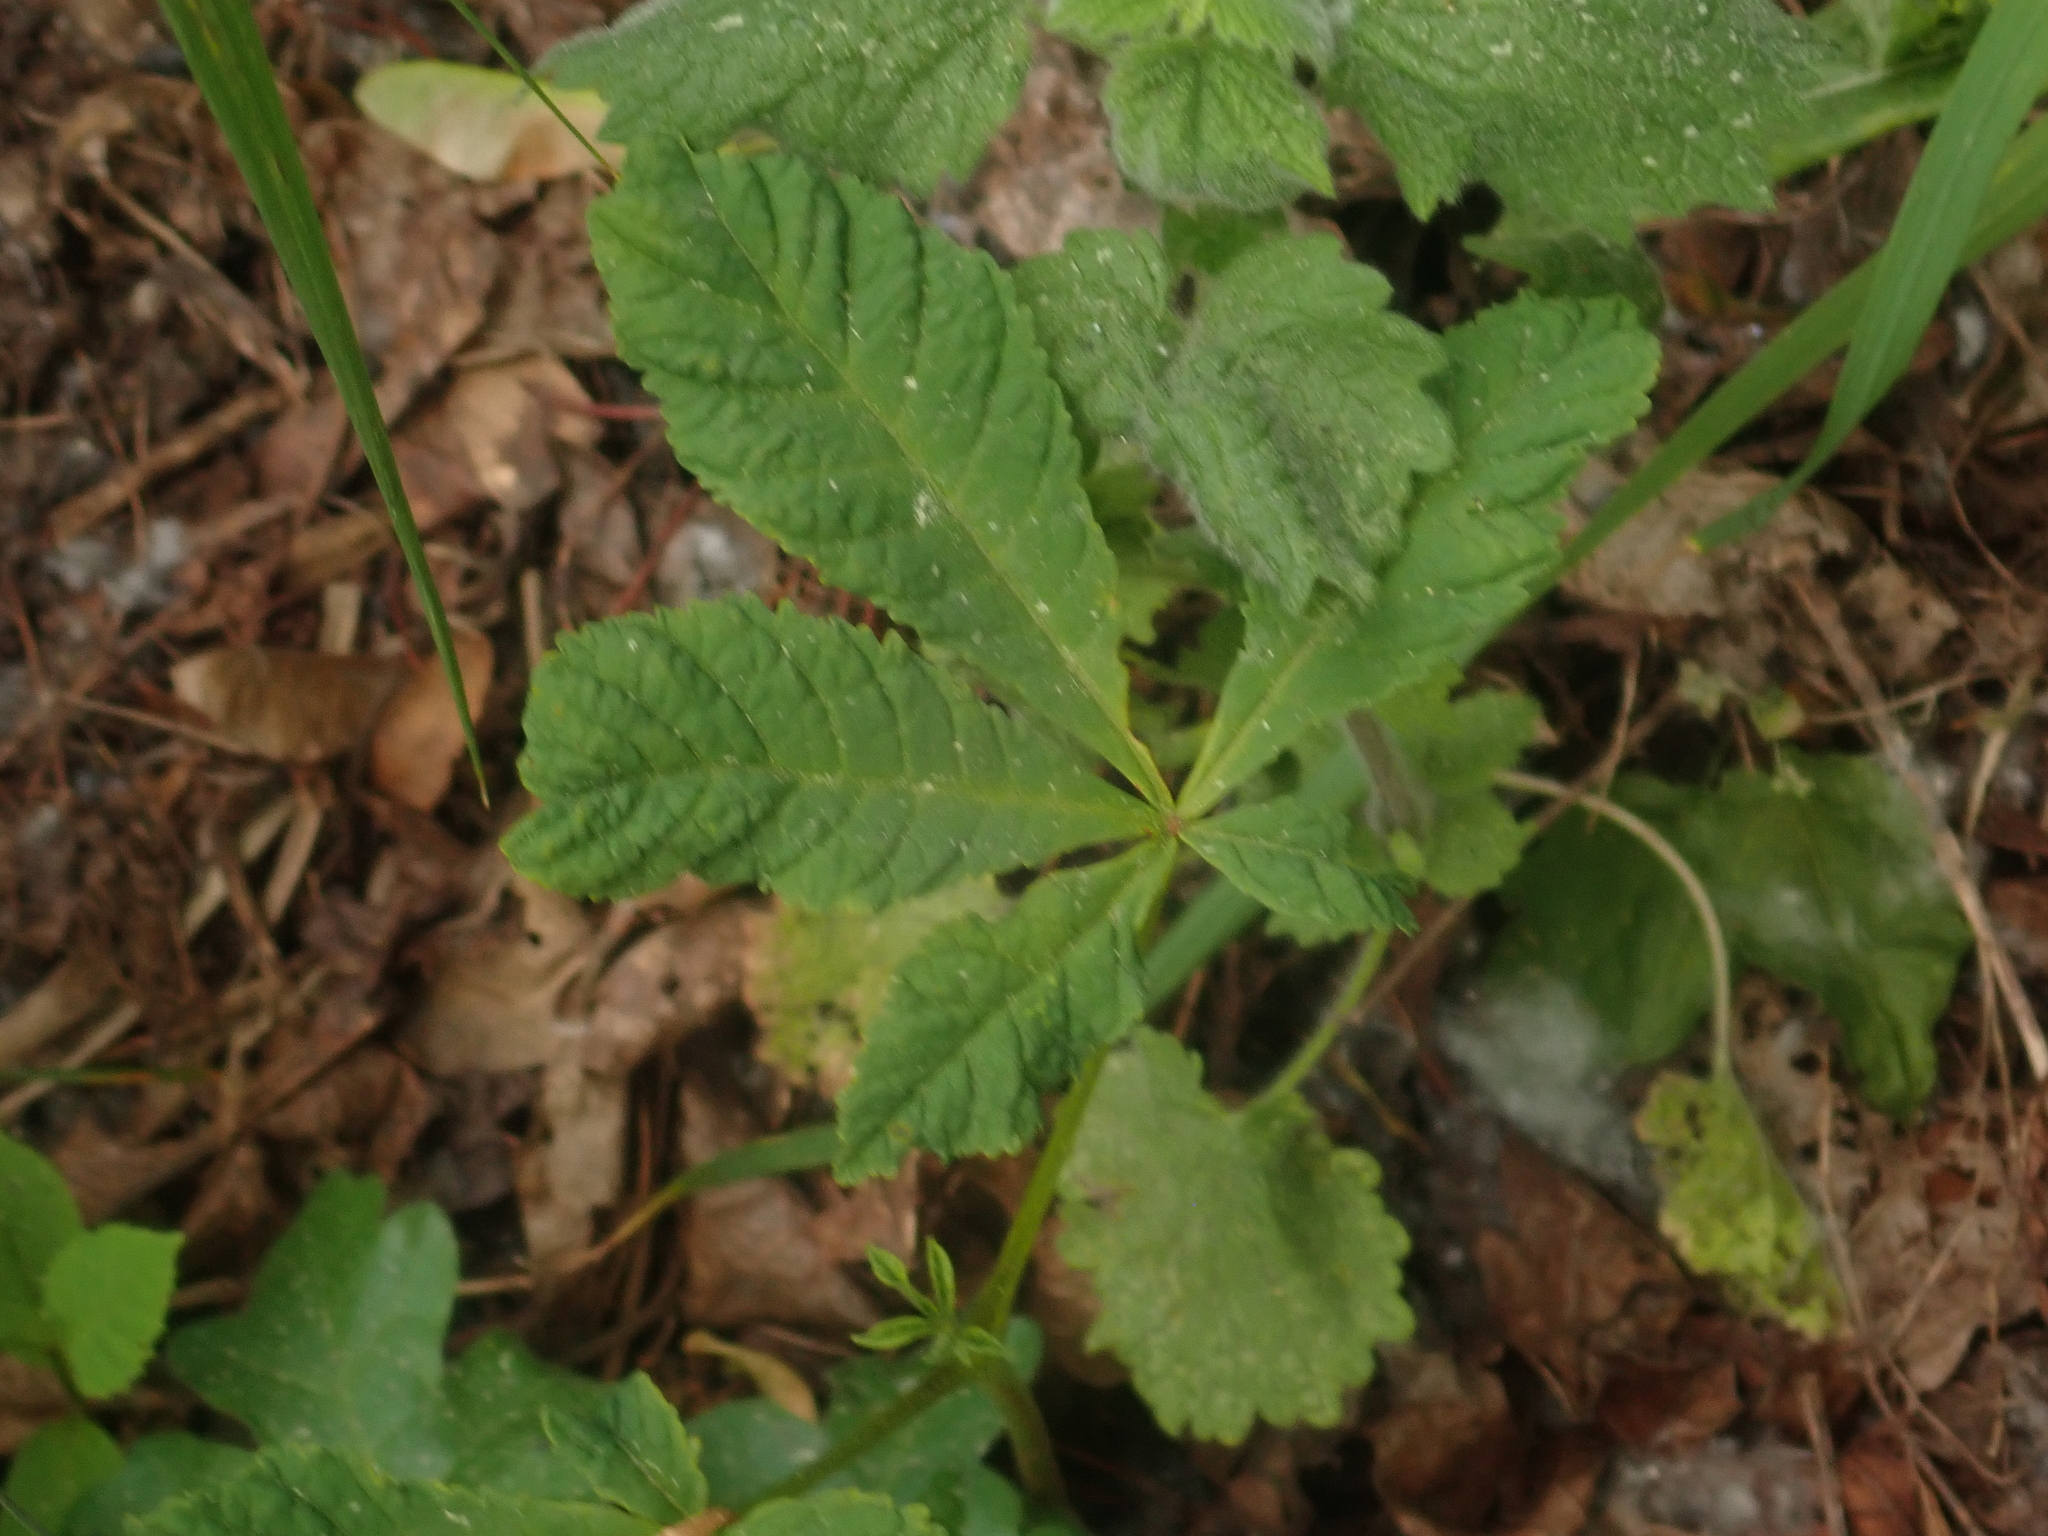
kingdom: Plantae
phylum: Tracheophyta
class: Magnoliopsida
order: Sapindales
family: Sapindaceae
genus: Aesculus
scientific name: Aesculus hippocastanum
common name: Horse-chestnut
